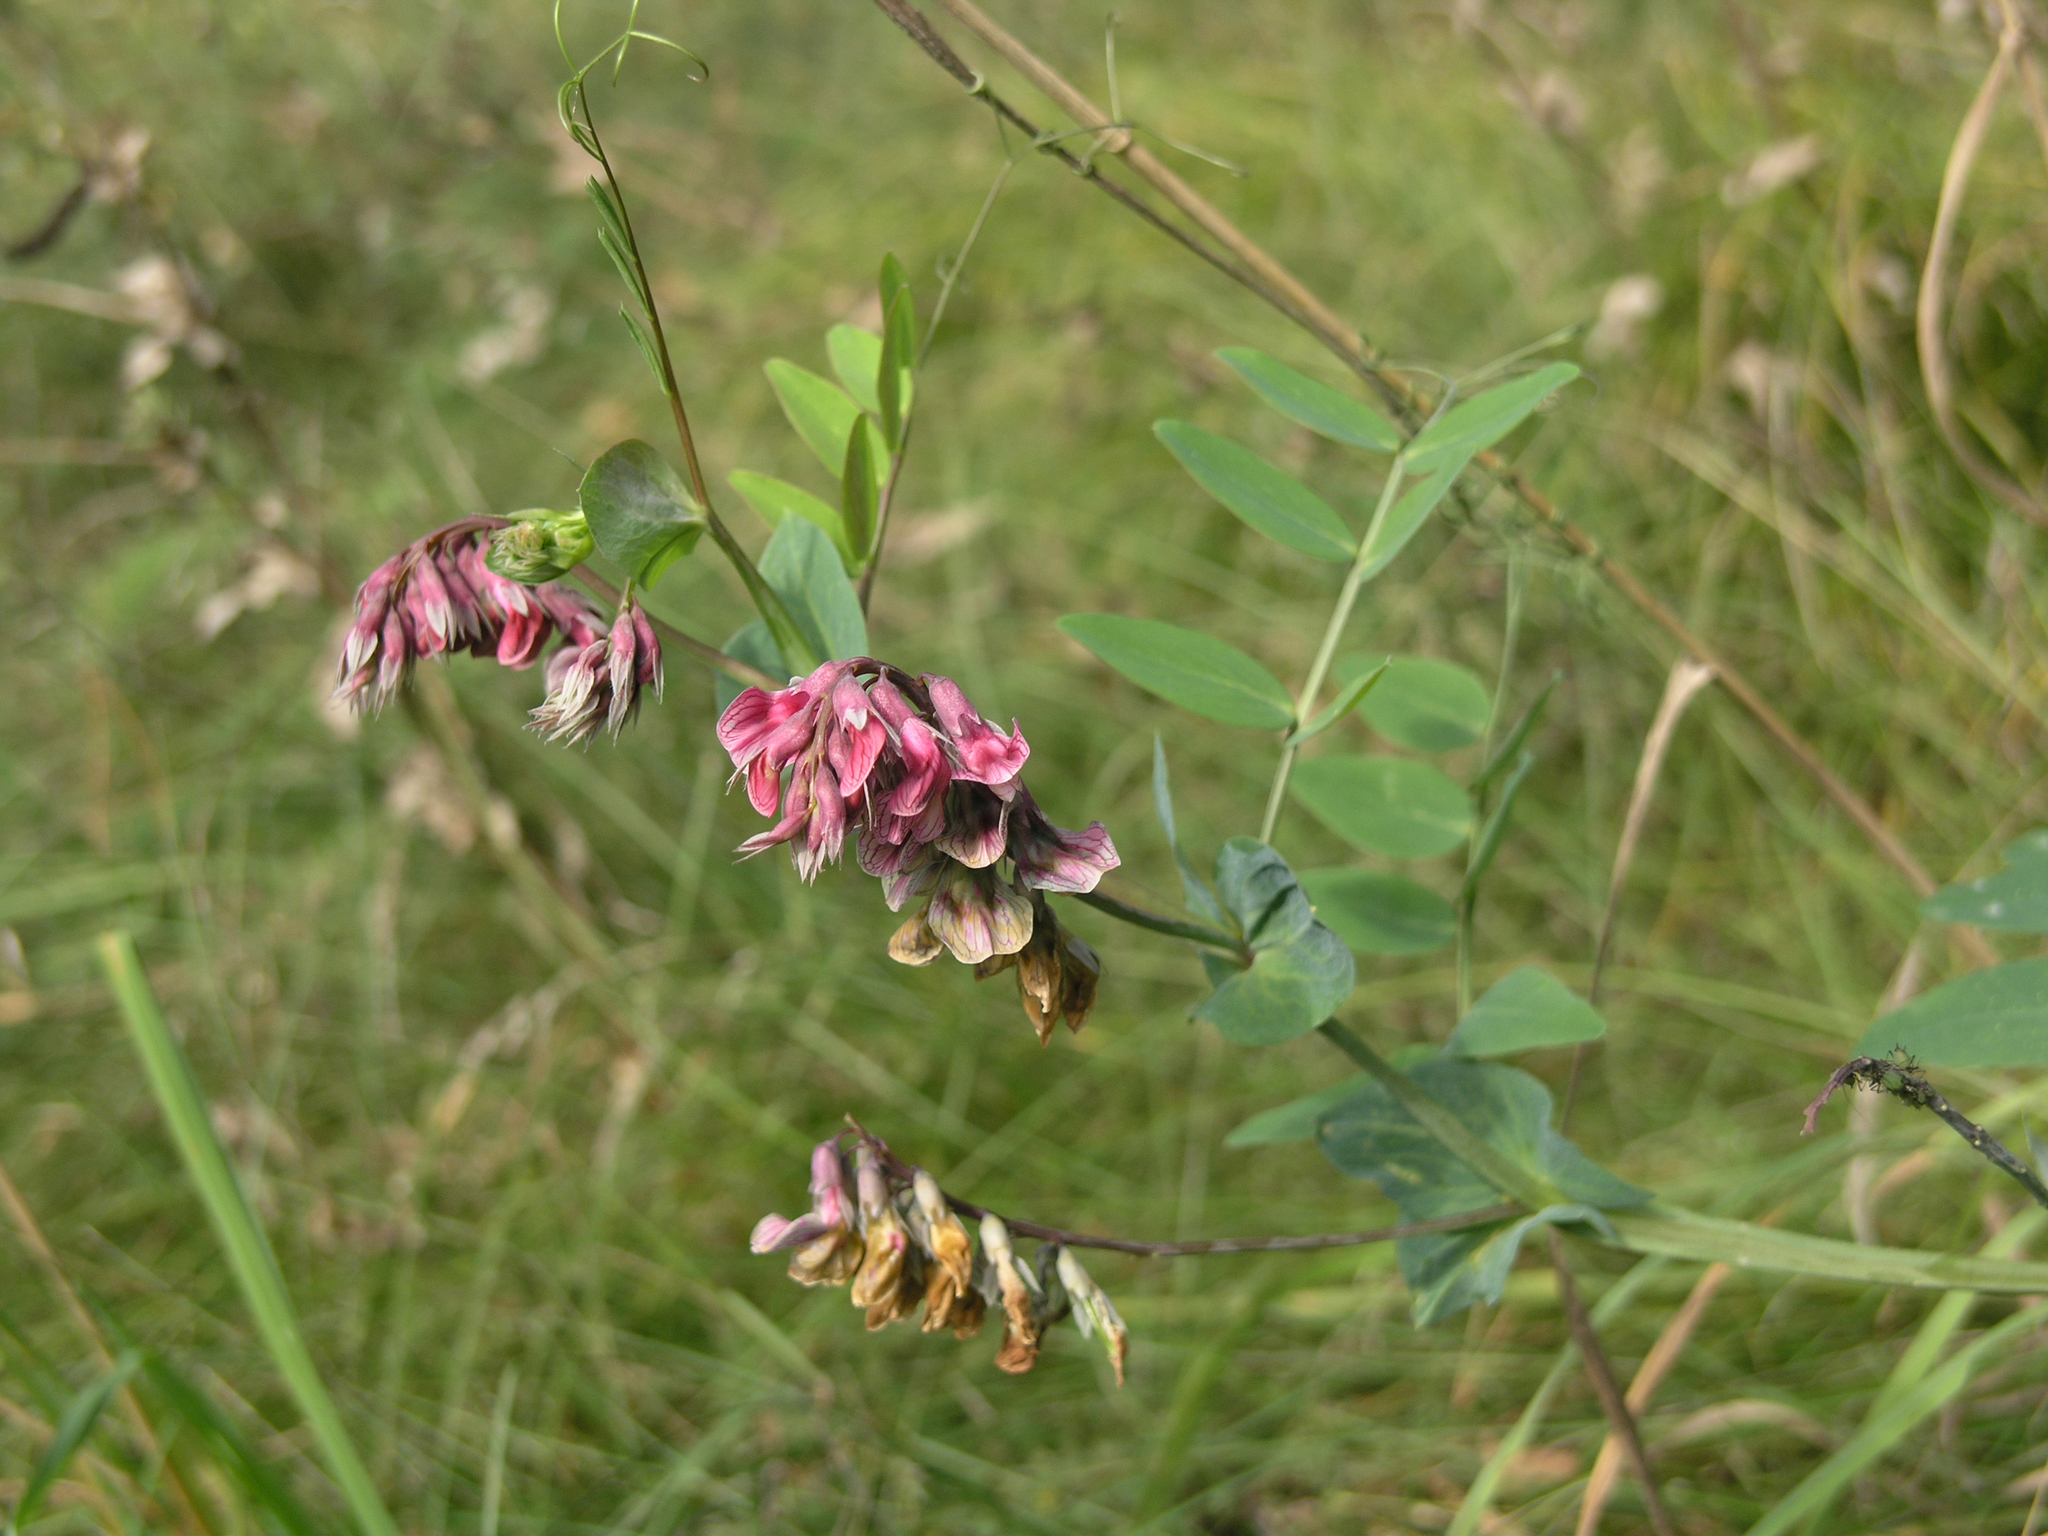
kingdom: Plantae
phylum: Tracheophyta
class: Magnoliopsida
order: Fabales
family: Fabaceae
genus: Lathyrus
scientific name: Lathyrus pisiformis
